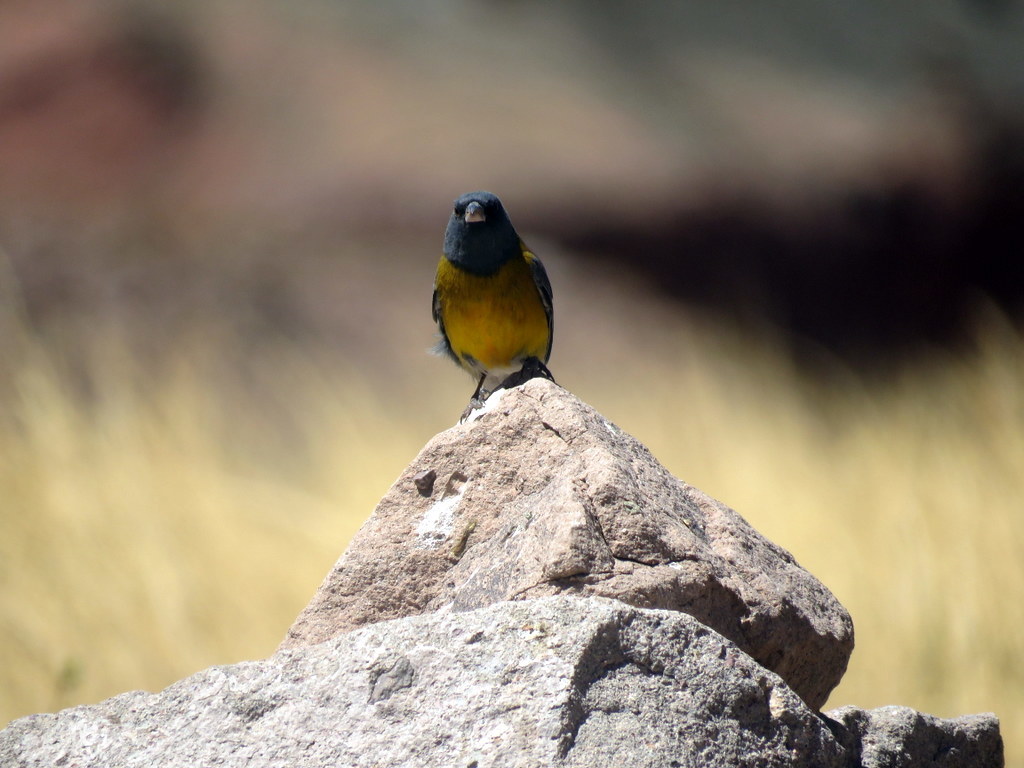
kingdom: Animalia
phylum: Chordata
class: Aves
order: Passeriformes
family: Thraupidae
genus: Phrygilus
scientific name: Phrygilus gayi
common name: Grey-hooded sierra finch
